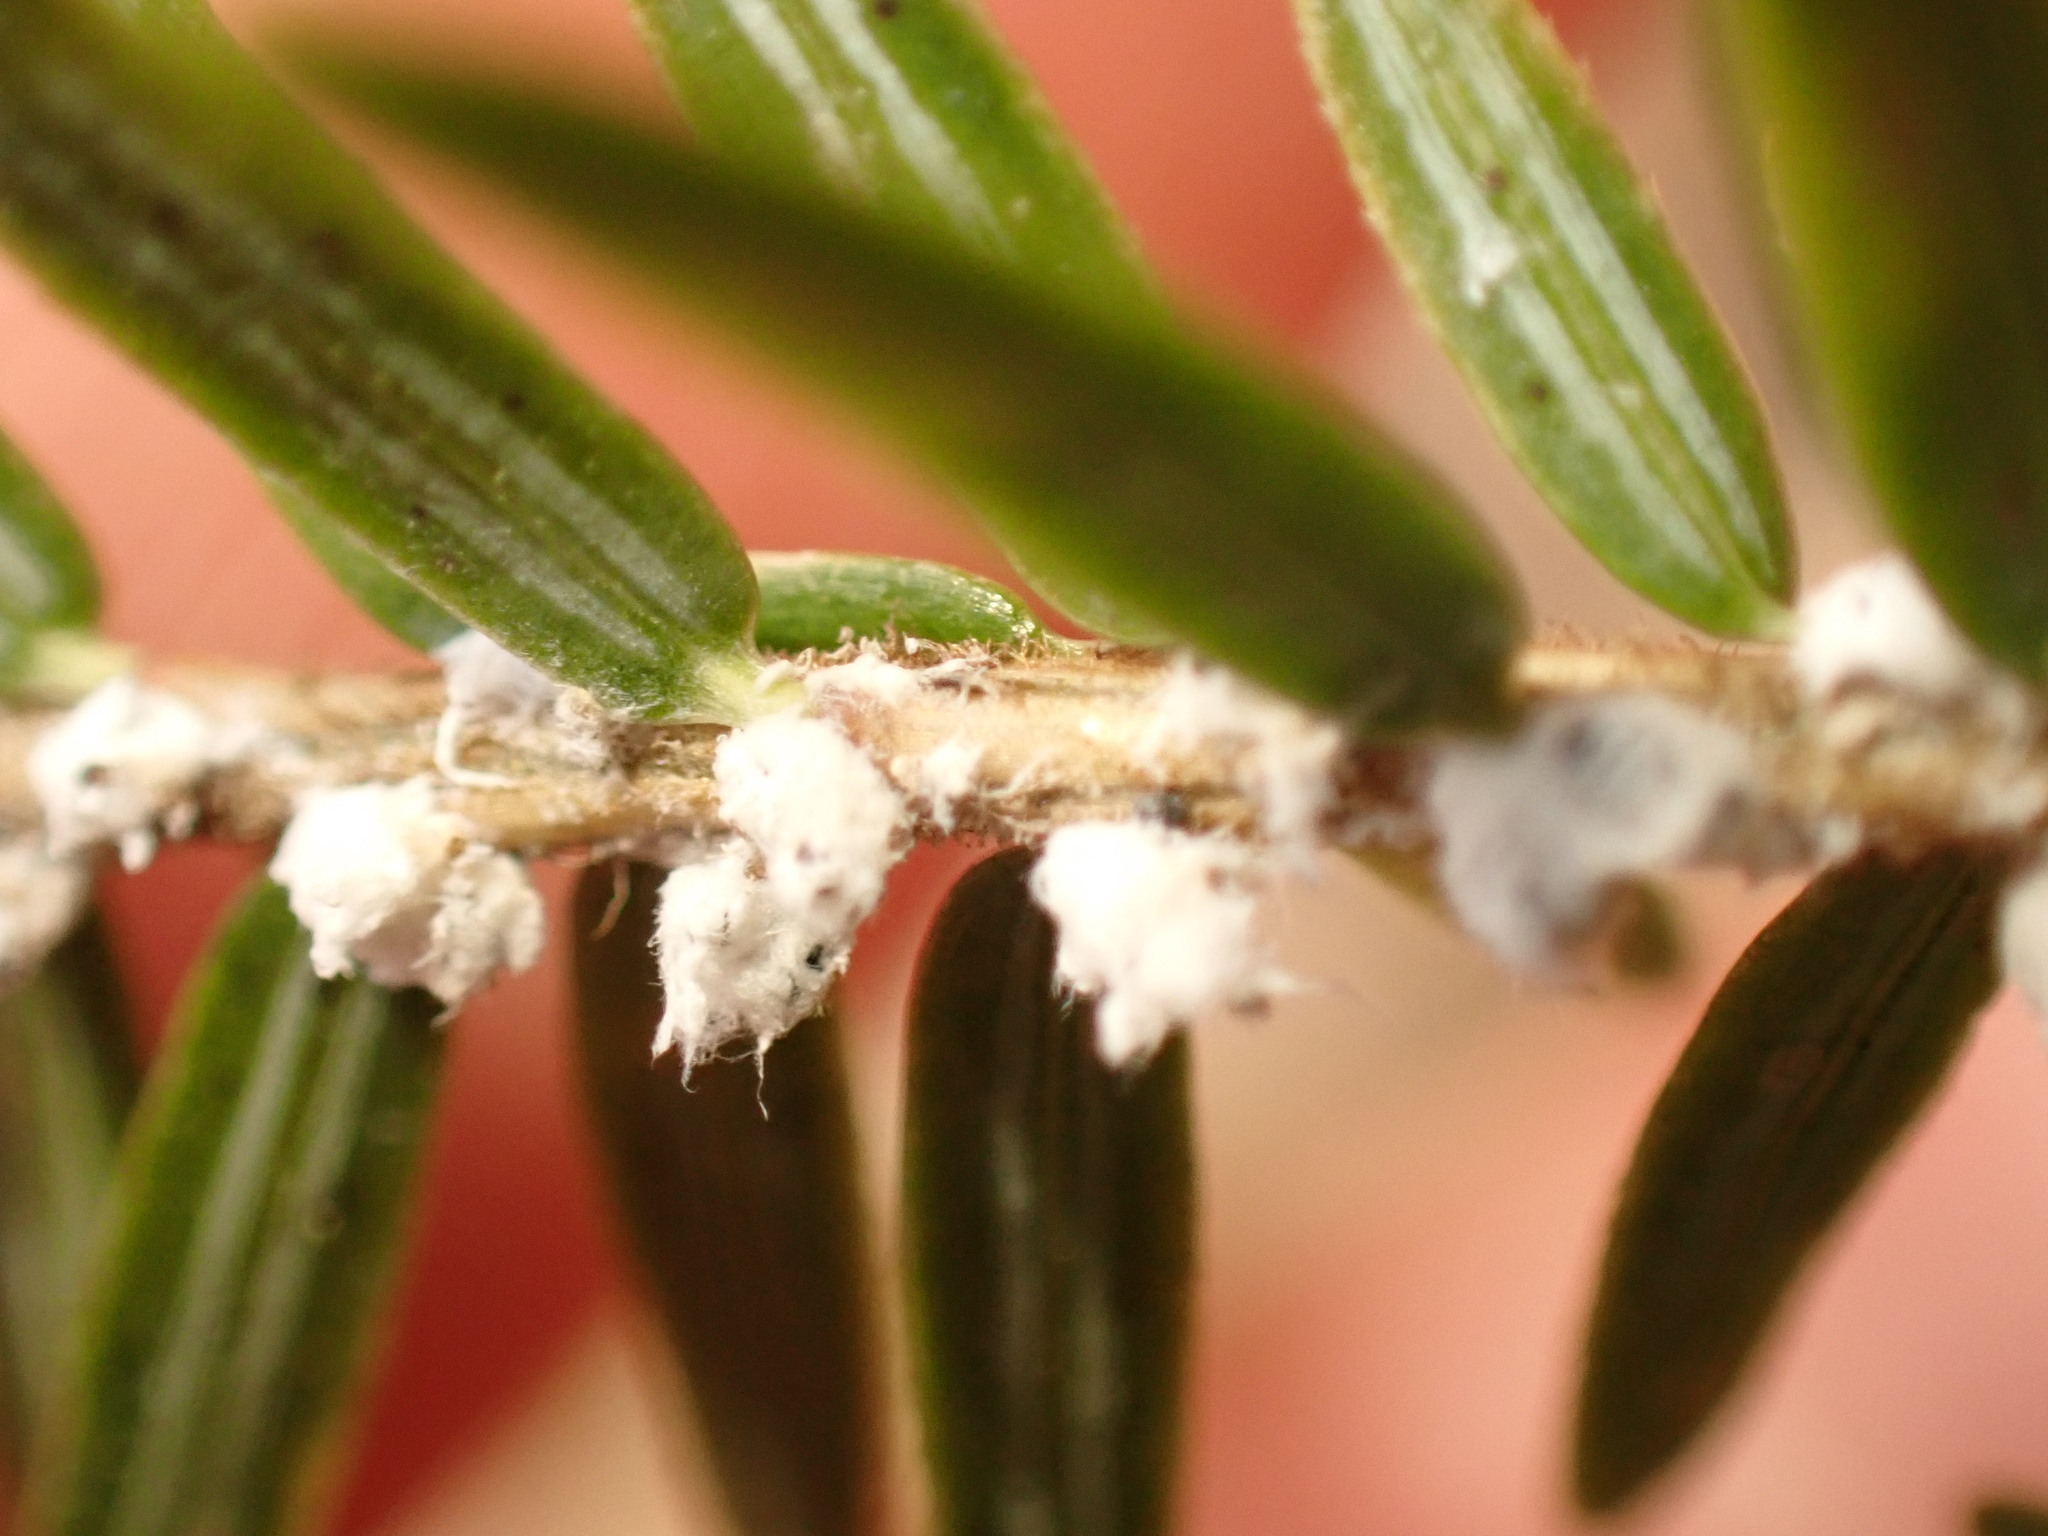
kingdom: Animalia
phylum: Arthropoda
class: Insecta
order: Hemiptera
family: Adelgidae
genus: Adelges
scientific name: Adelges tsugae
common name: Hemlock woolly adelgid
